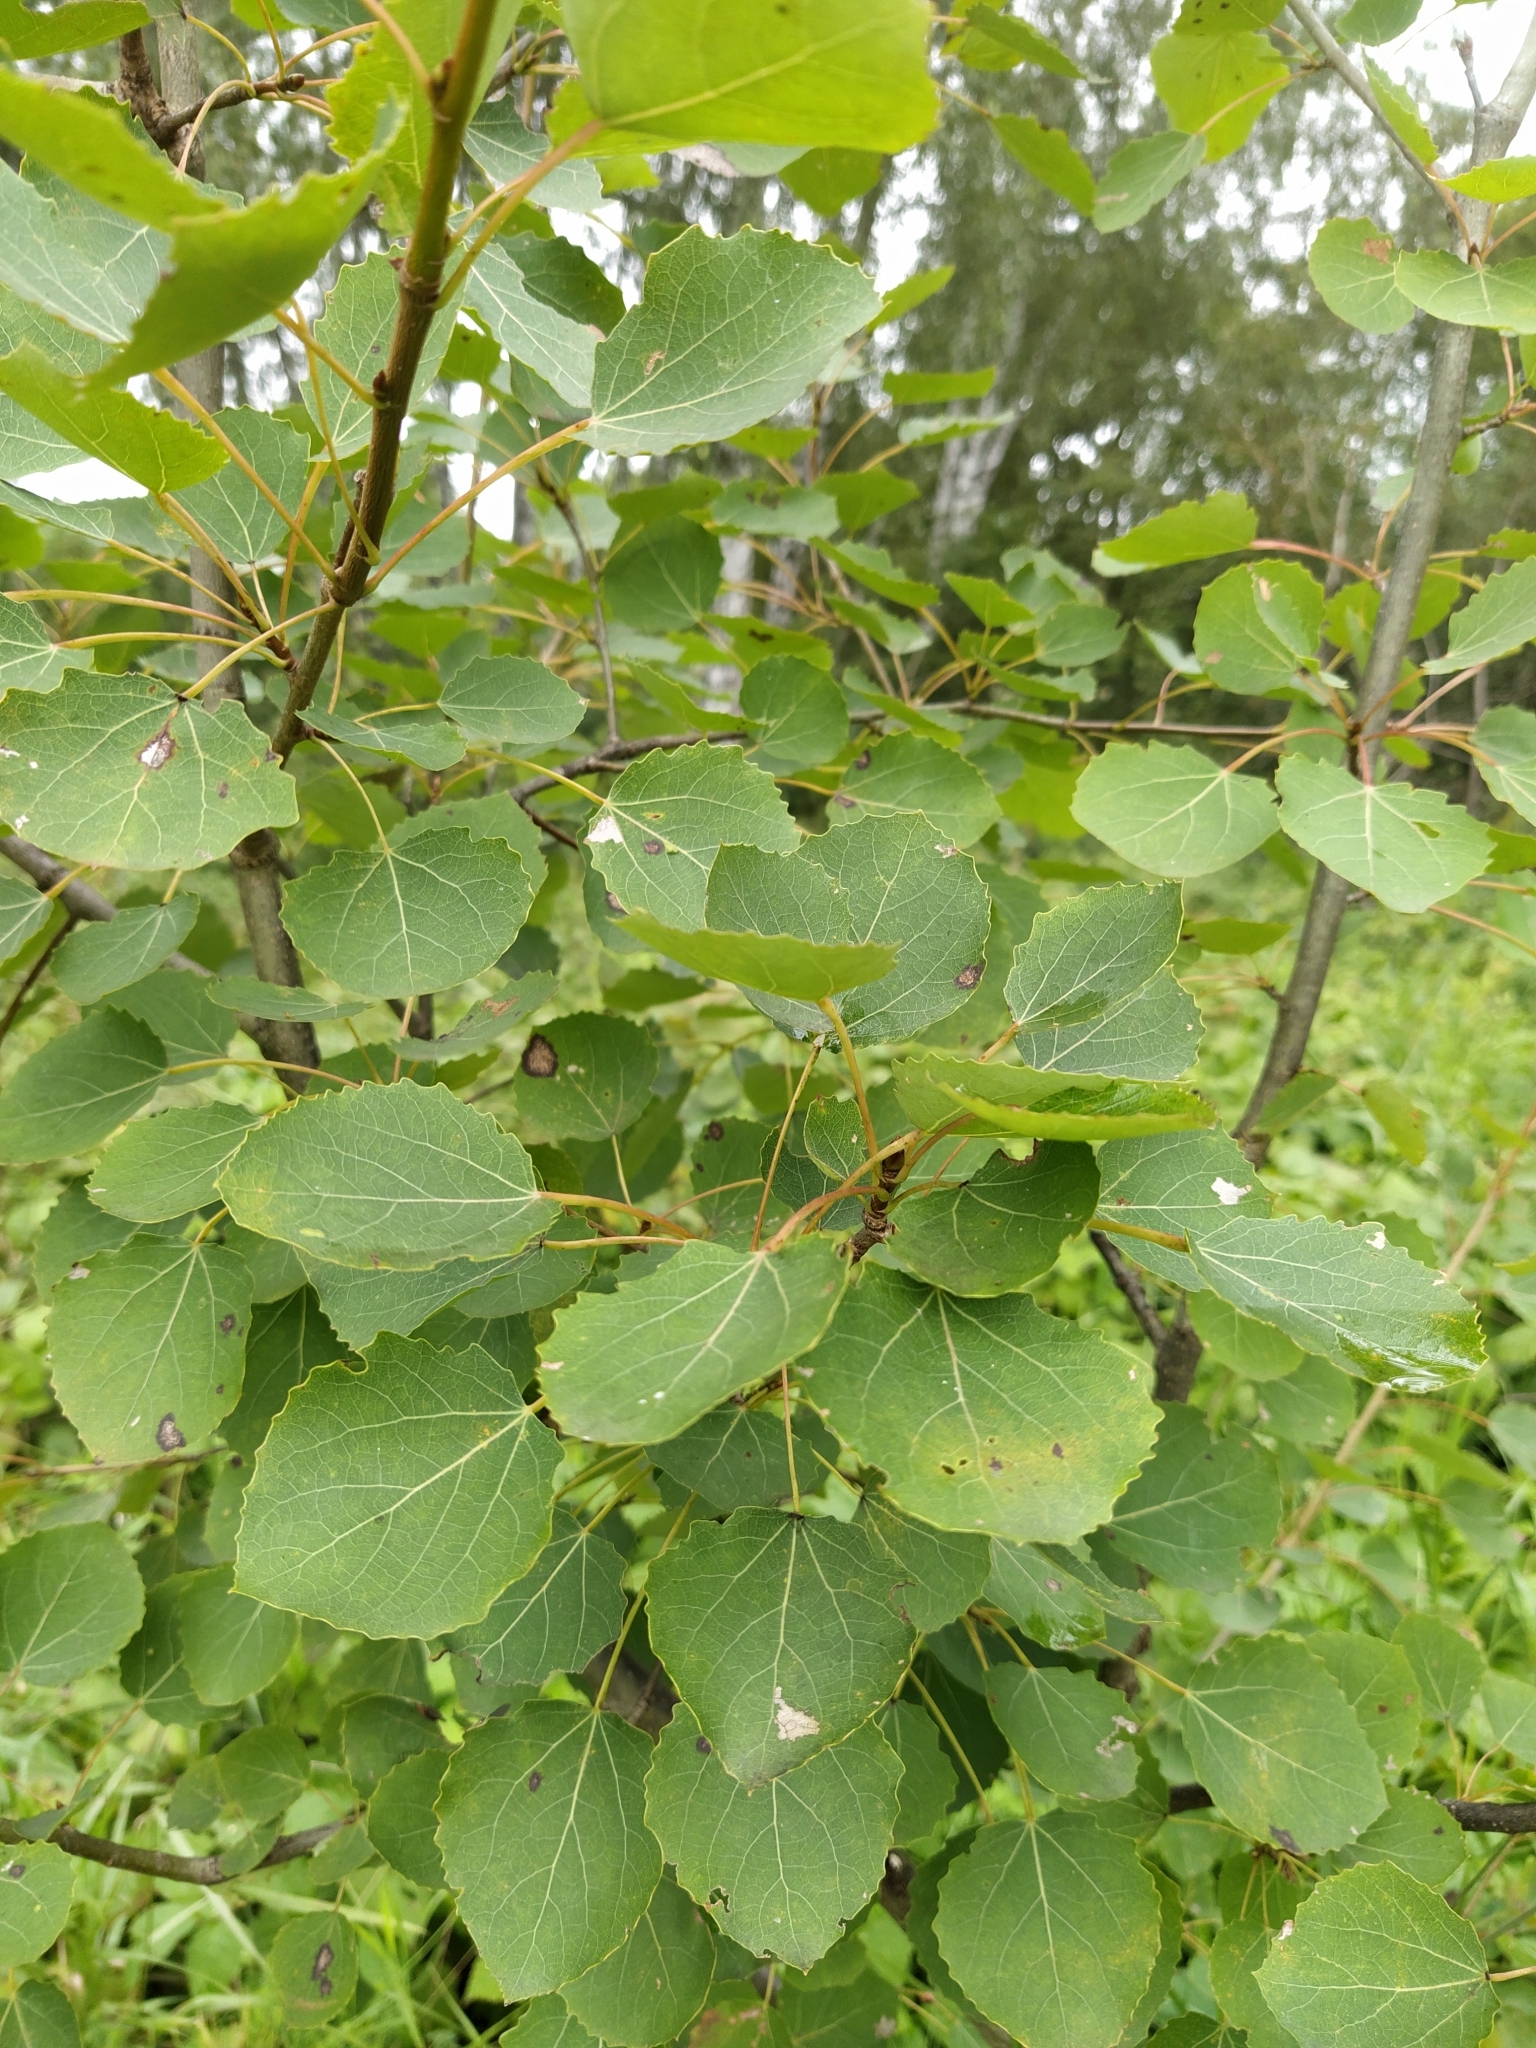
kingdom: Plantae
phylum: Tracheophyta
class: Magnoliopsida
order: Malpighiales
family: Salicaceae
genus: Populus
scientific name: Populus tremula
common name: European aspen
